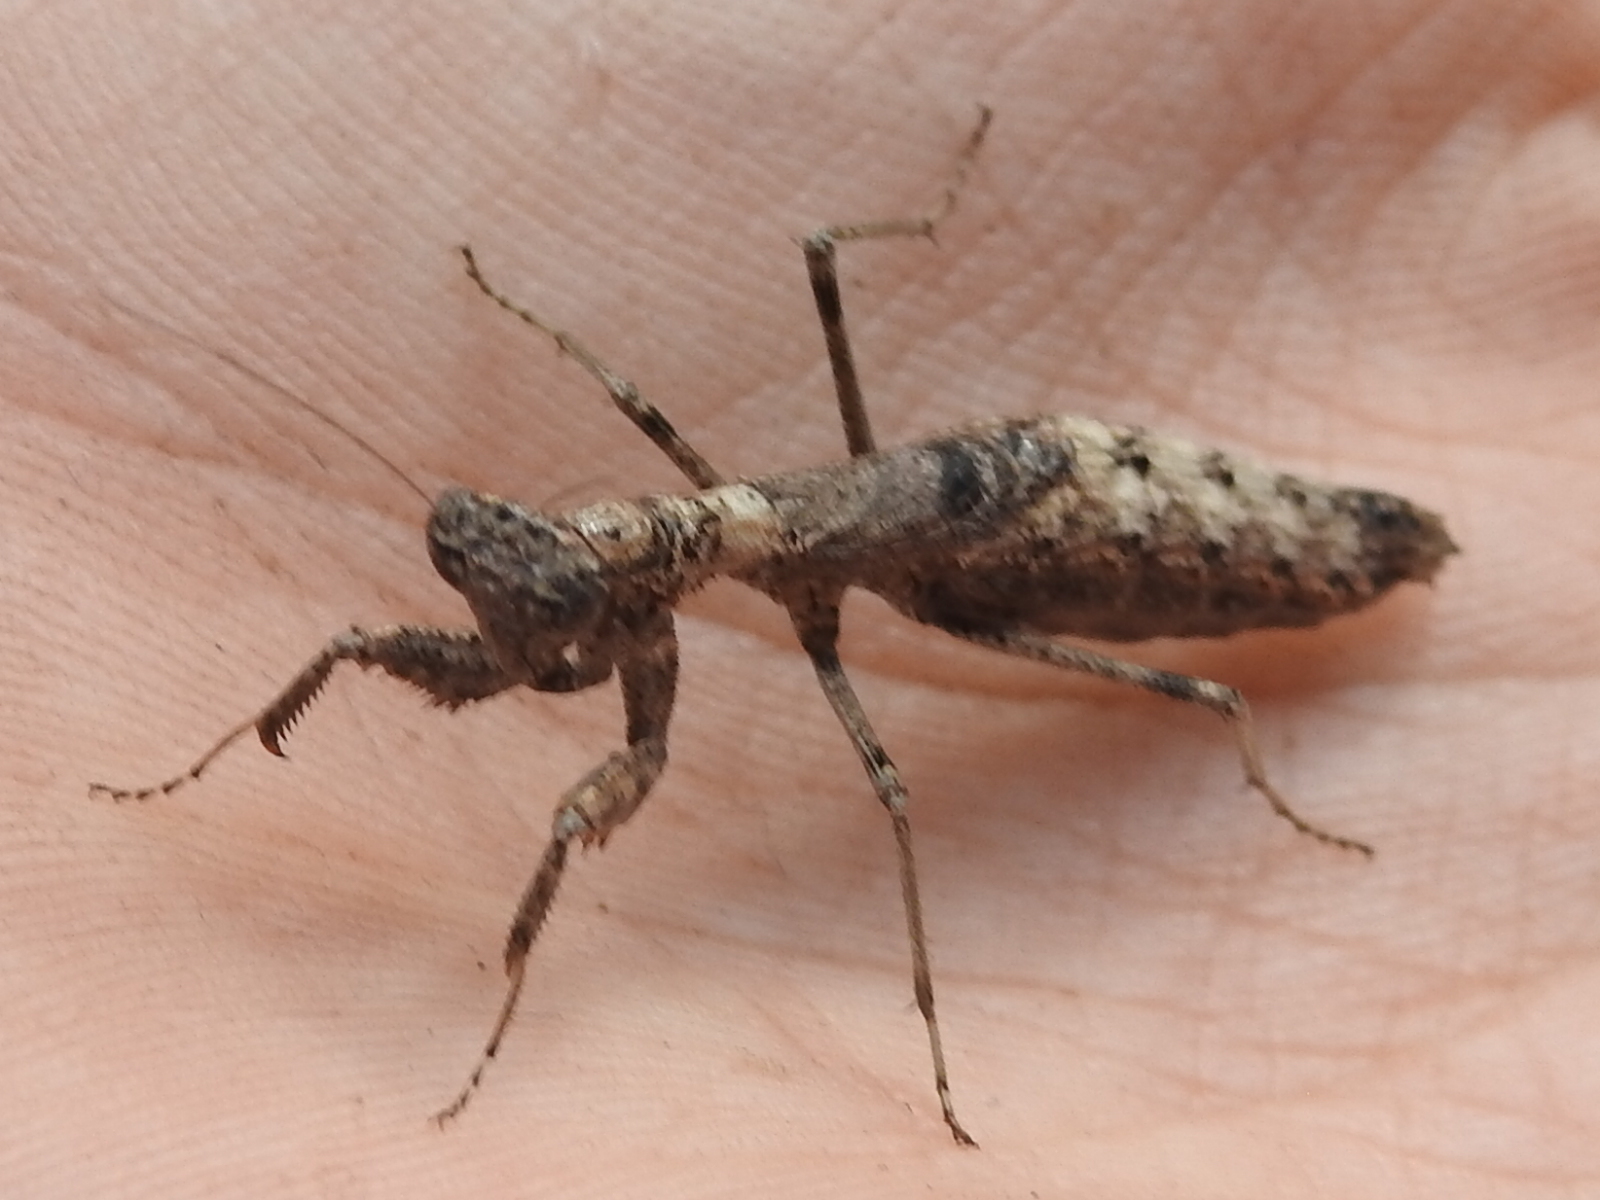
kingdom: Animalia
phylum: Arthropoda
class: Insecta
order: Mantodea
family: Amelidae
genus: Litaneutria
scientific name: Litaneutria minor
